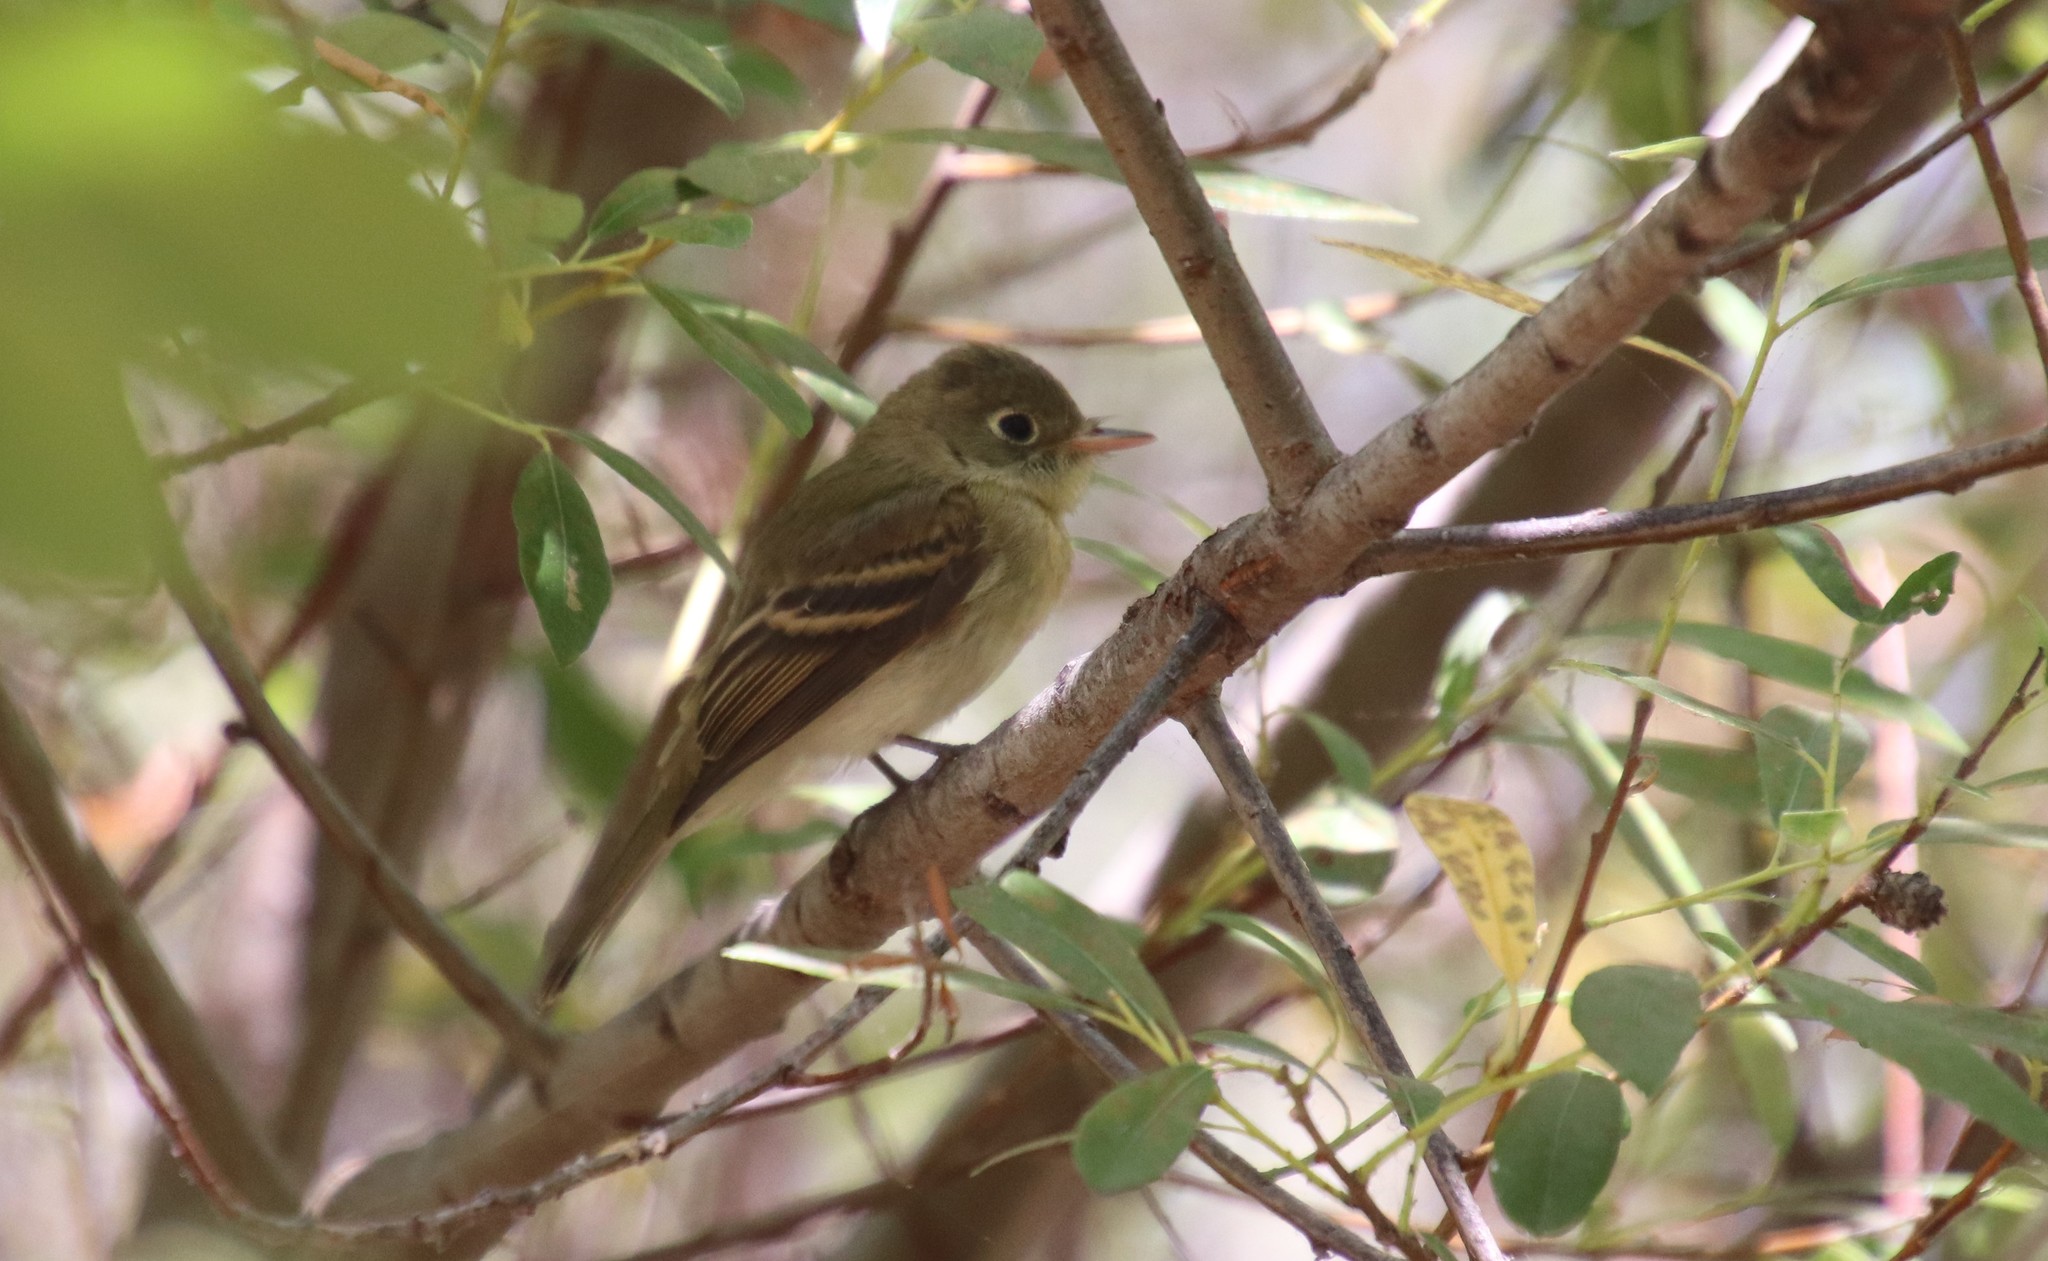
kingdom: Animalia
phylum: Chordata
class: Aves
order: Passeriformes
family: Tyrannidae
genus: Empidonax
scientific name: Empidonax difficilis
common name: Pacific-slope flycatcher
